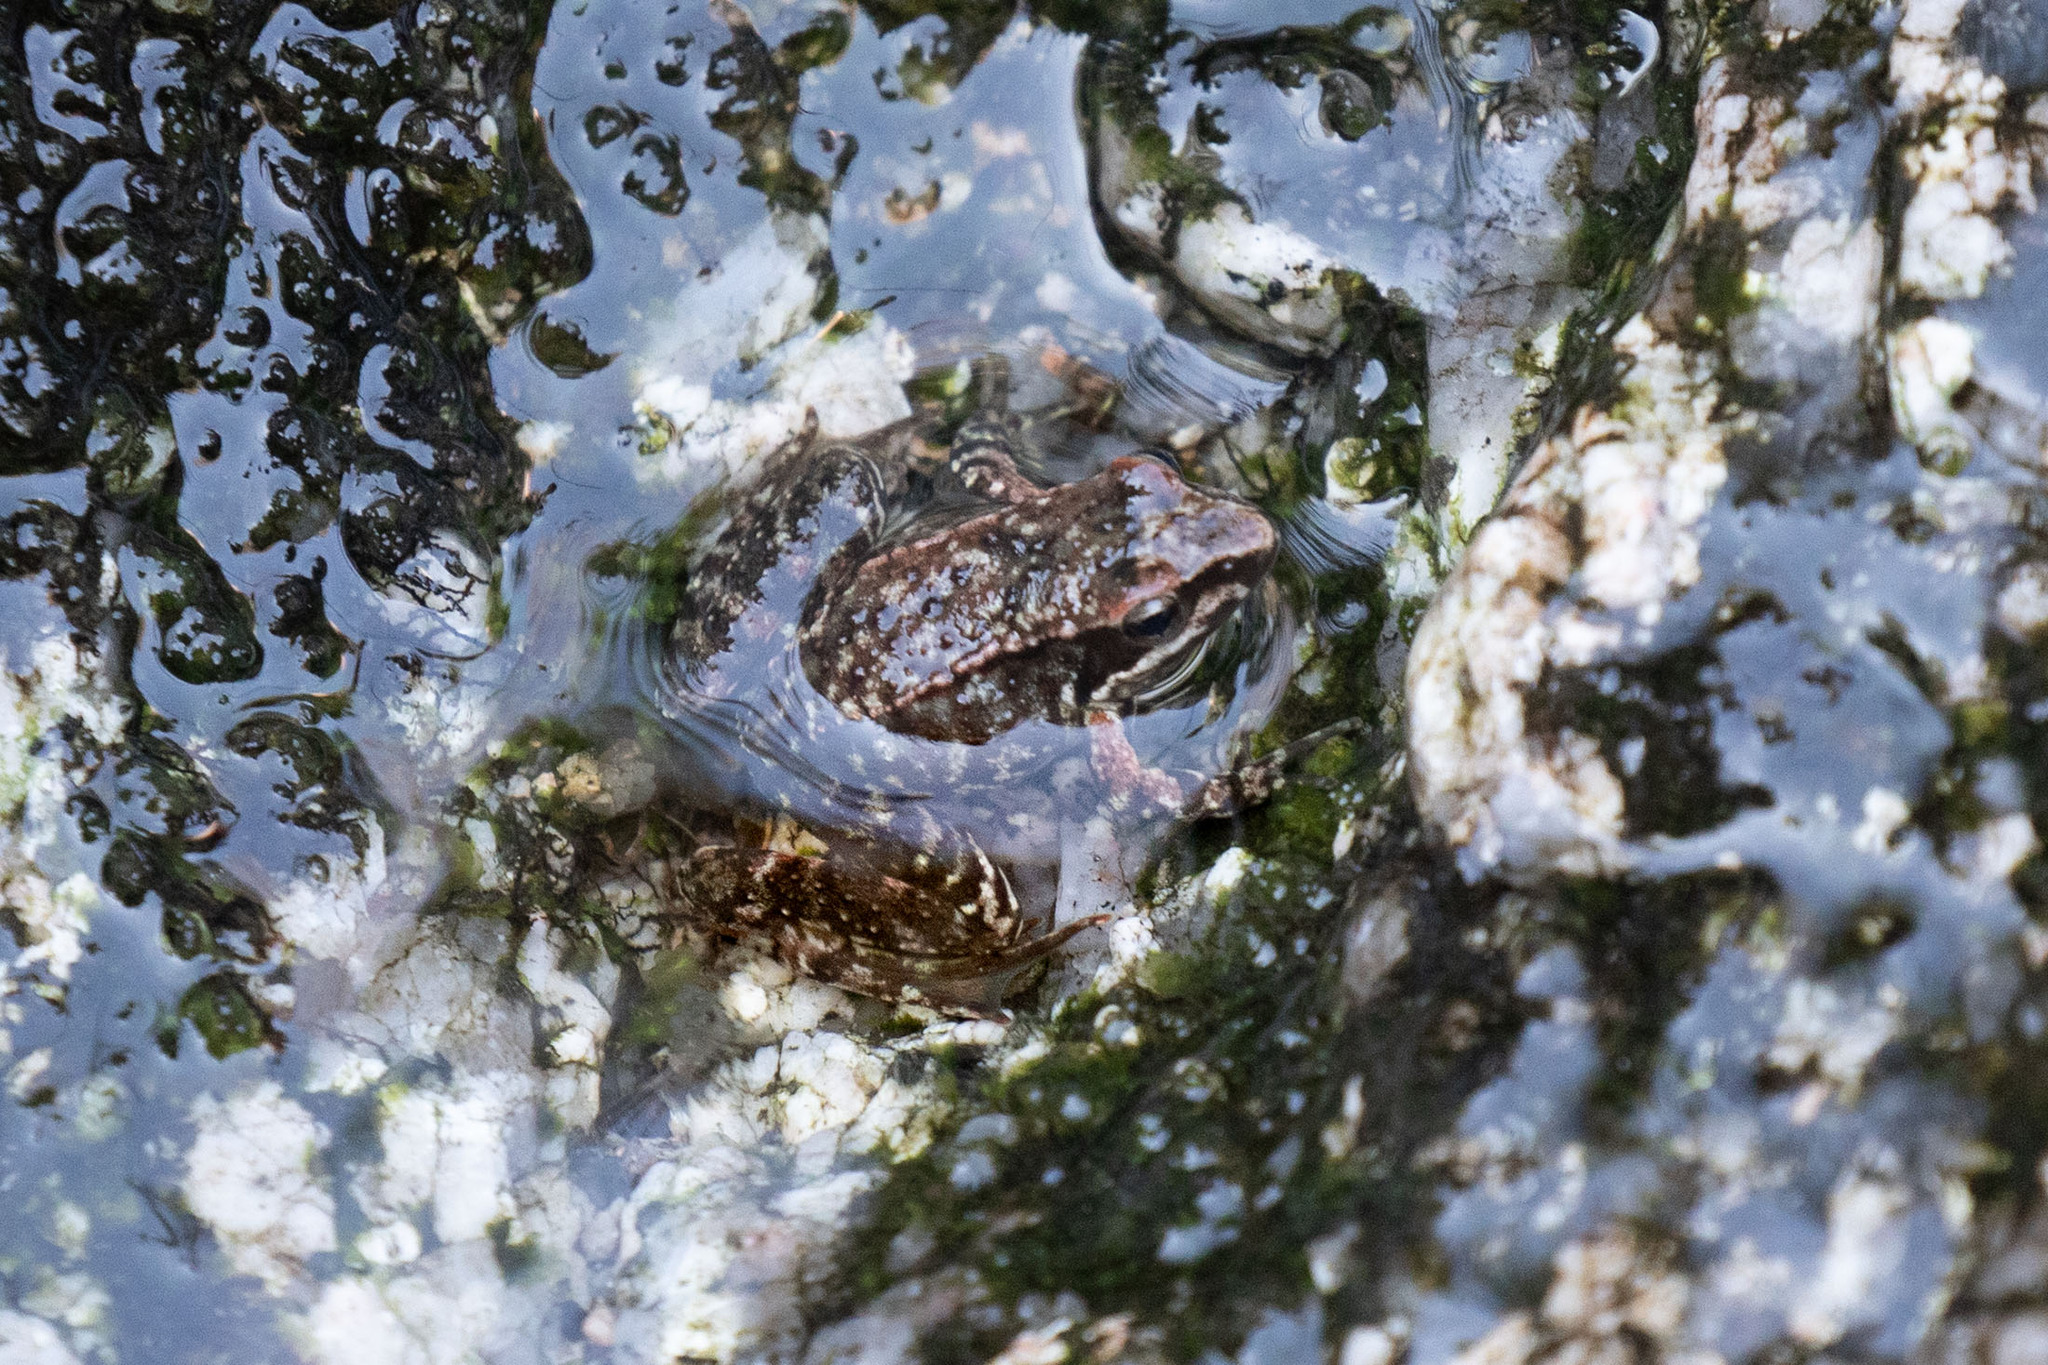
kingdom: Animalia
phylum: Chordata
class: Amphibia
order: Anura
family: Ranidae
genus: Rana
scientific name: Rana iberica
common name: Iberian frog
